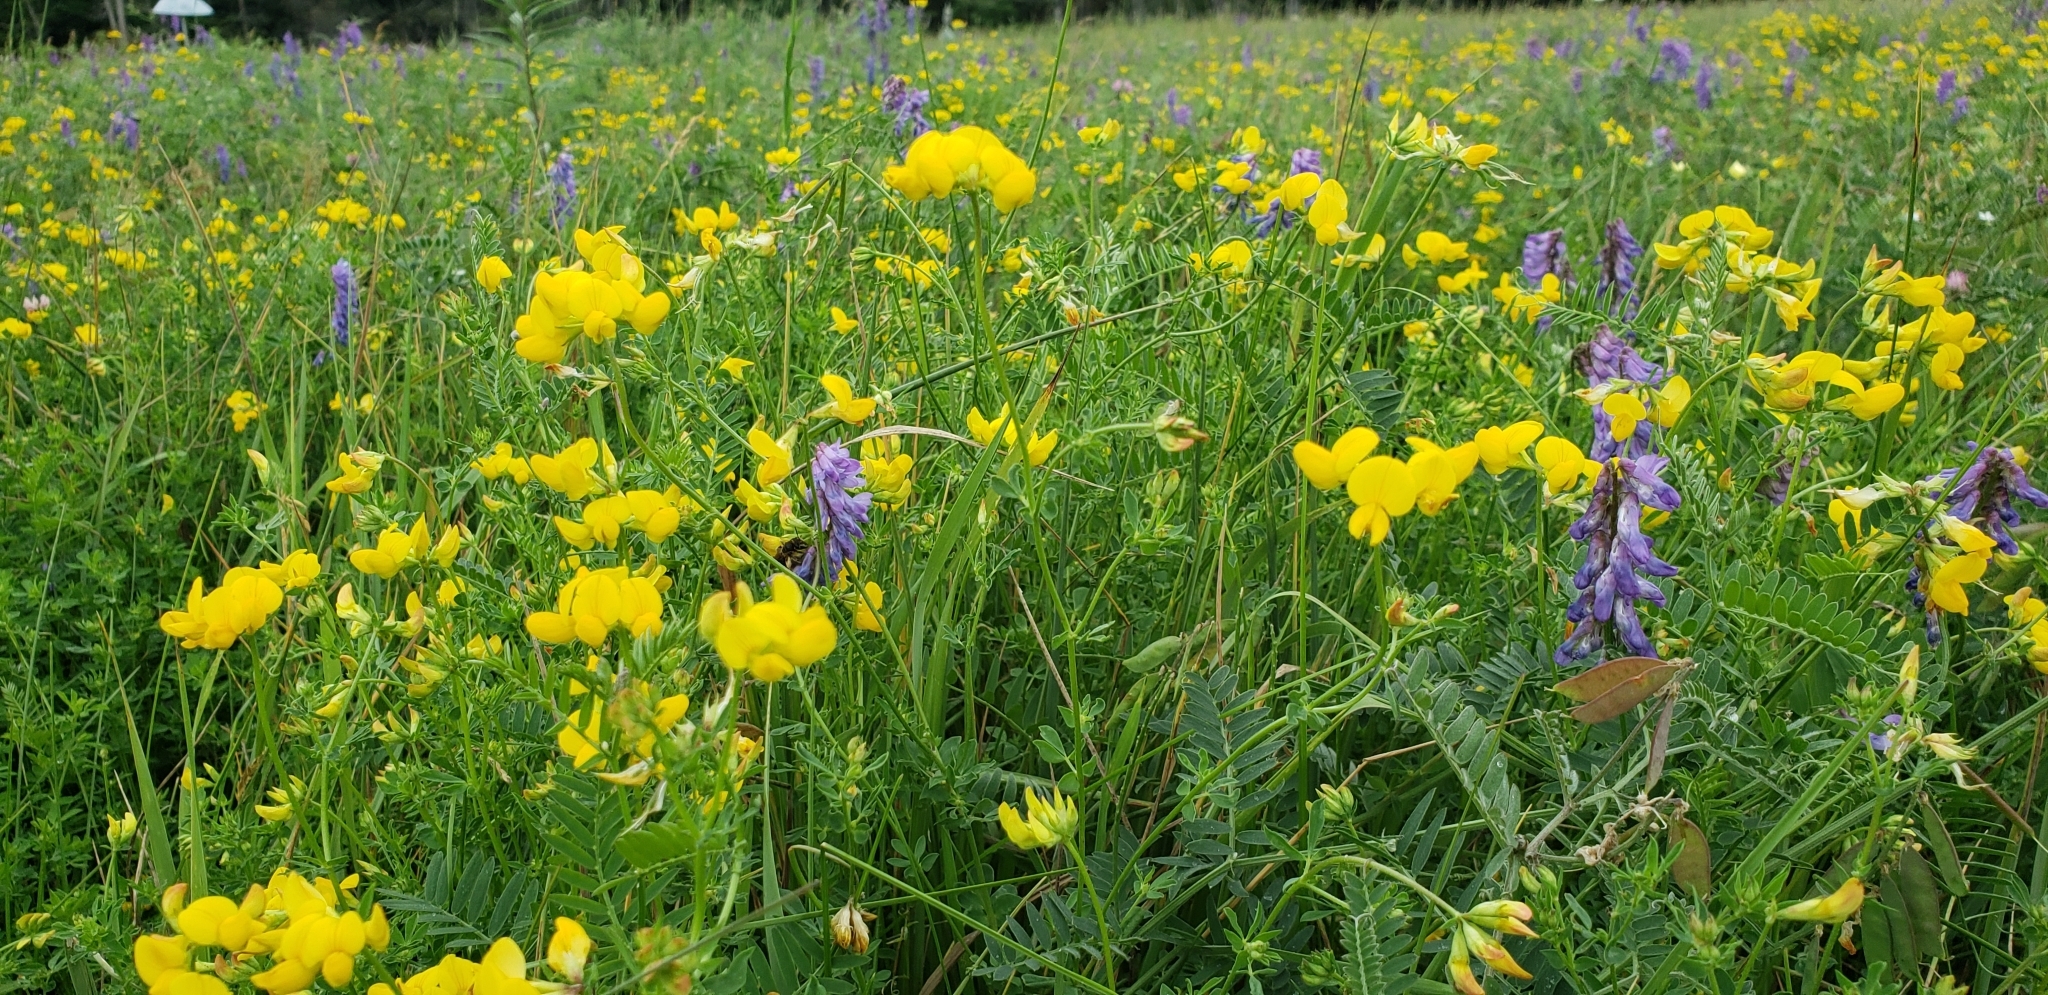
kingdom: Plantae
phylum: Tracheophyta
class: Magnoliopsida
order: Fabales
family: Fabaceae
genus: Lotus
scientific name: Lotus corniculatus
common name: Common bird's-foot-trefoil
